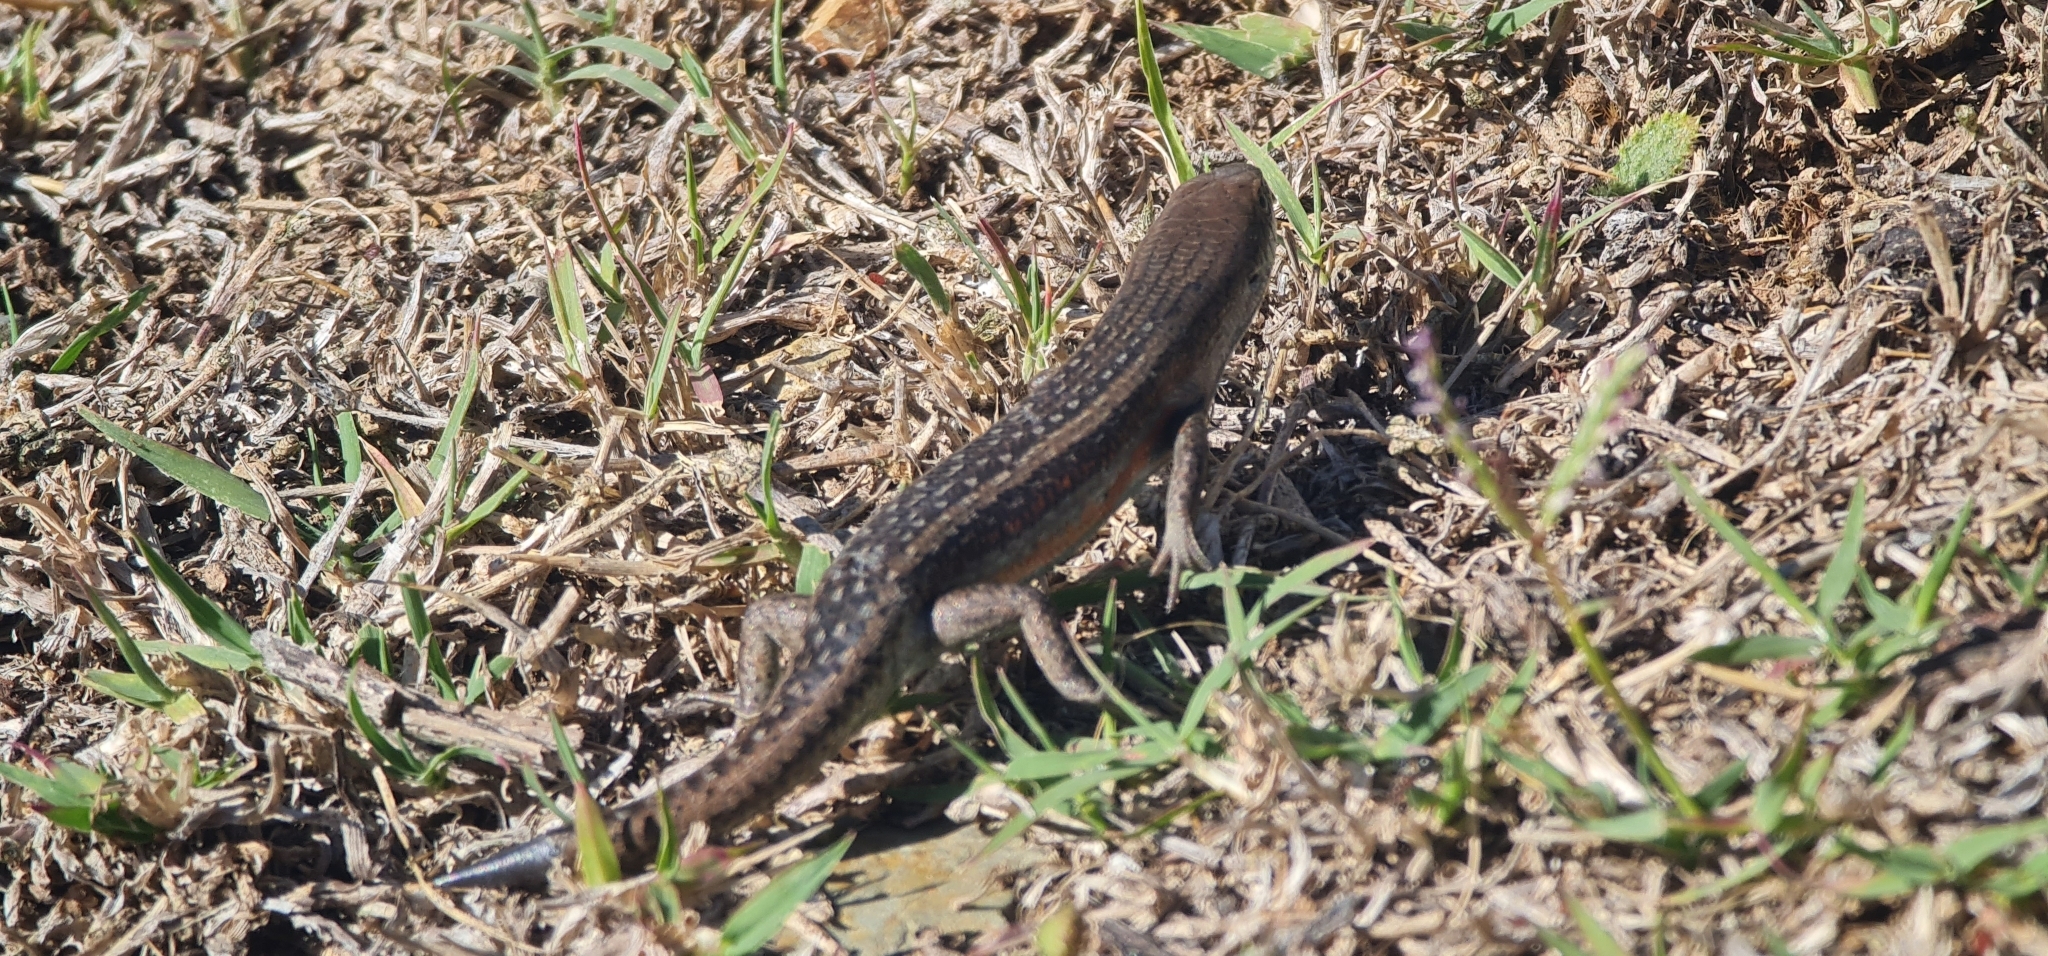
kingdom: Animalia
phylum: Chordata
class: Squamata
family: Scincidae
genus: Carlia
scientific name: Carlia tetradactyla
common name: Southern rainbow-skink
